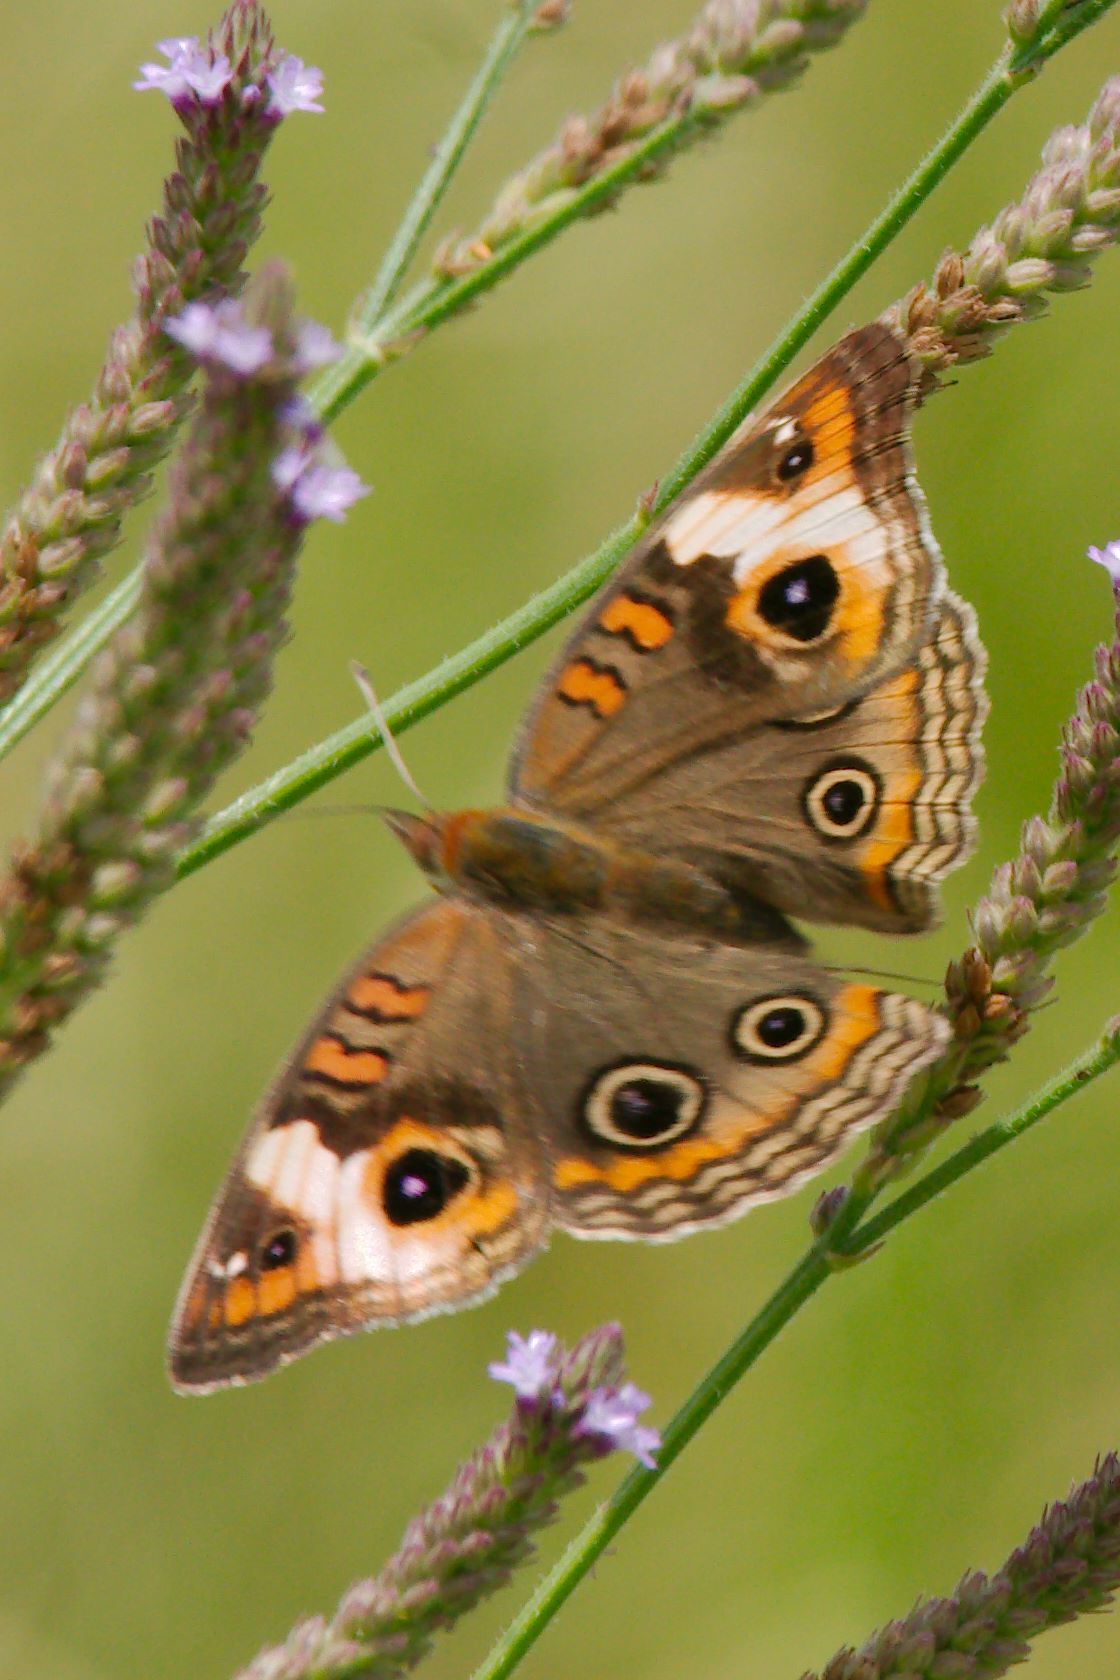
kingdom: Animalia
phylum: Arthropoda
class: Insecta
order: Lepidoptera
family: Nymphalidae
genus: Junonia
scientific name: Junonia coenia
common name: Common buckeye
